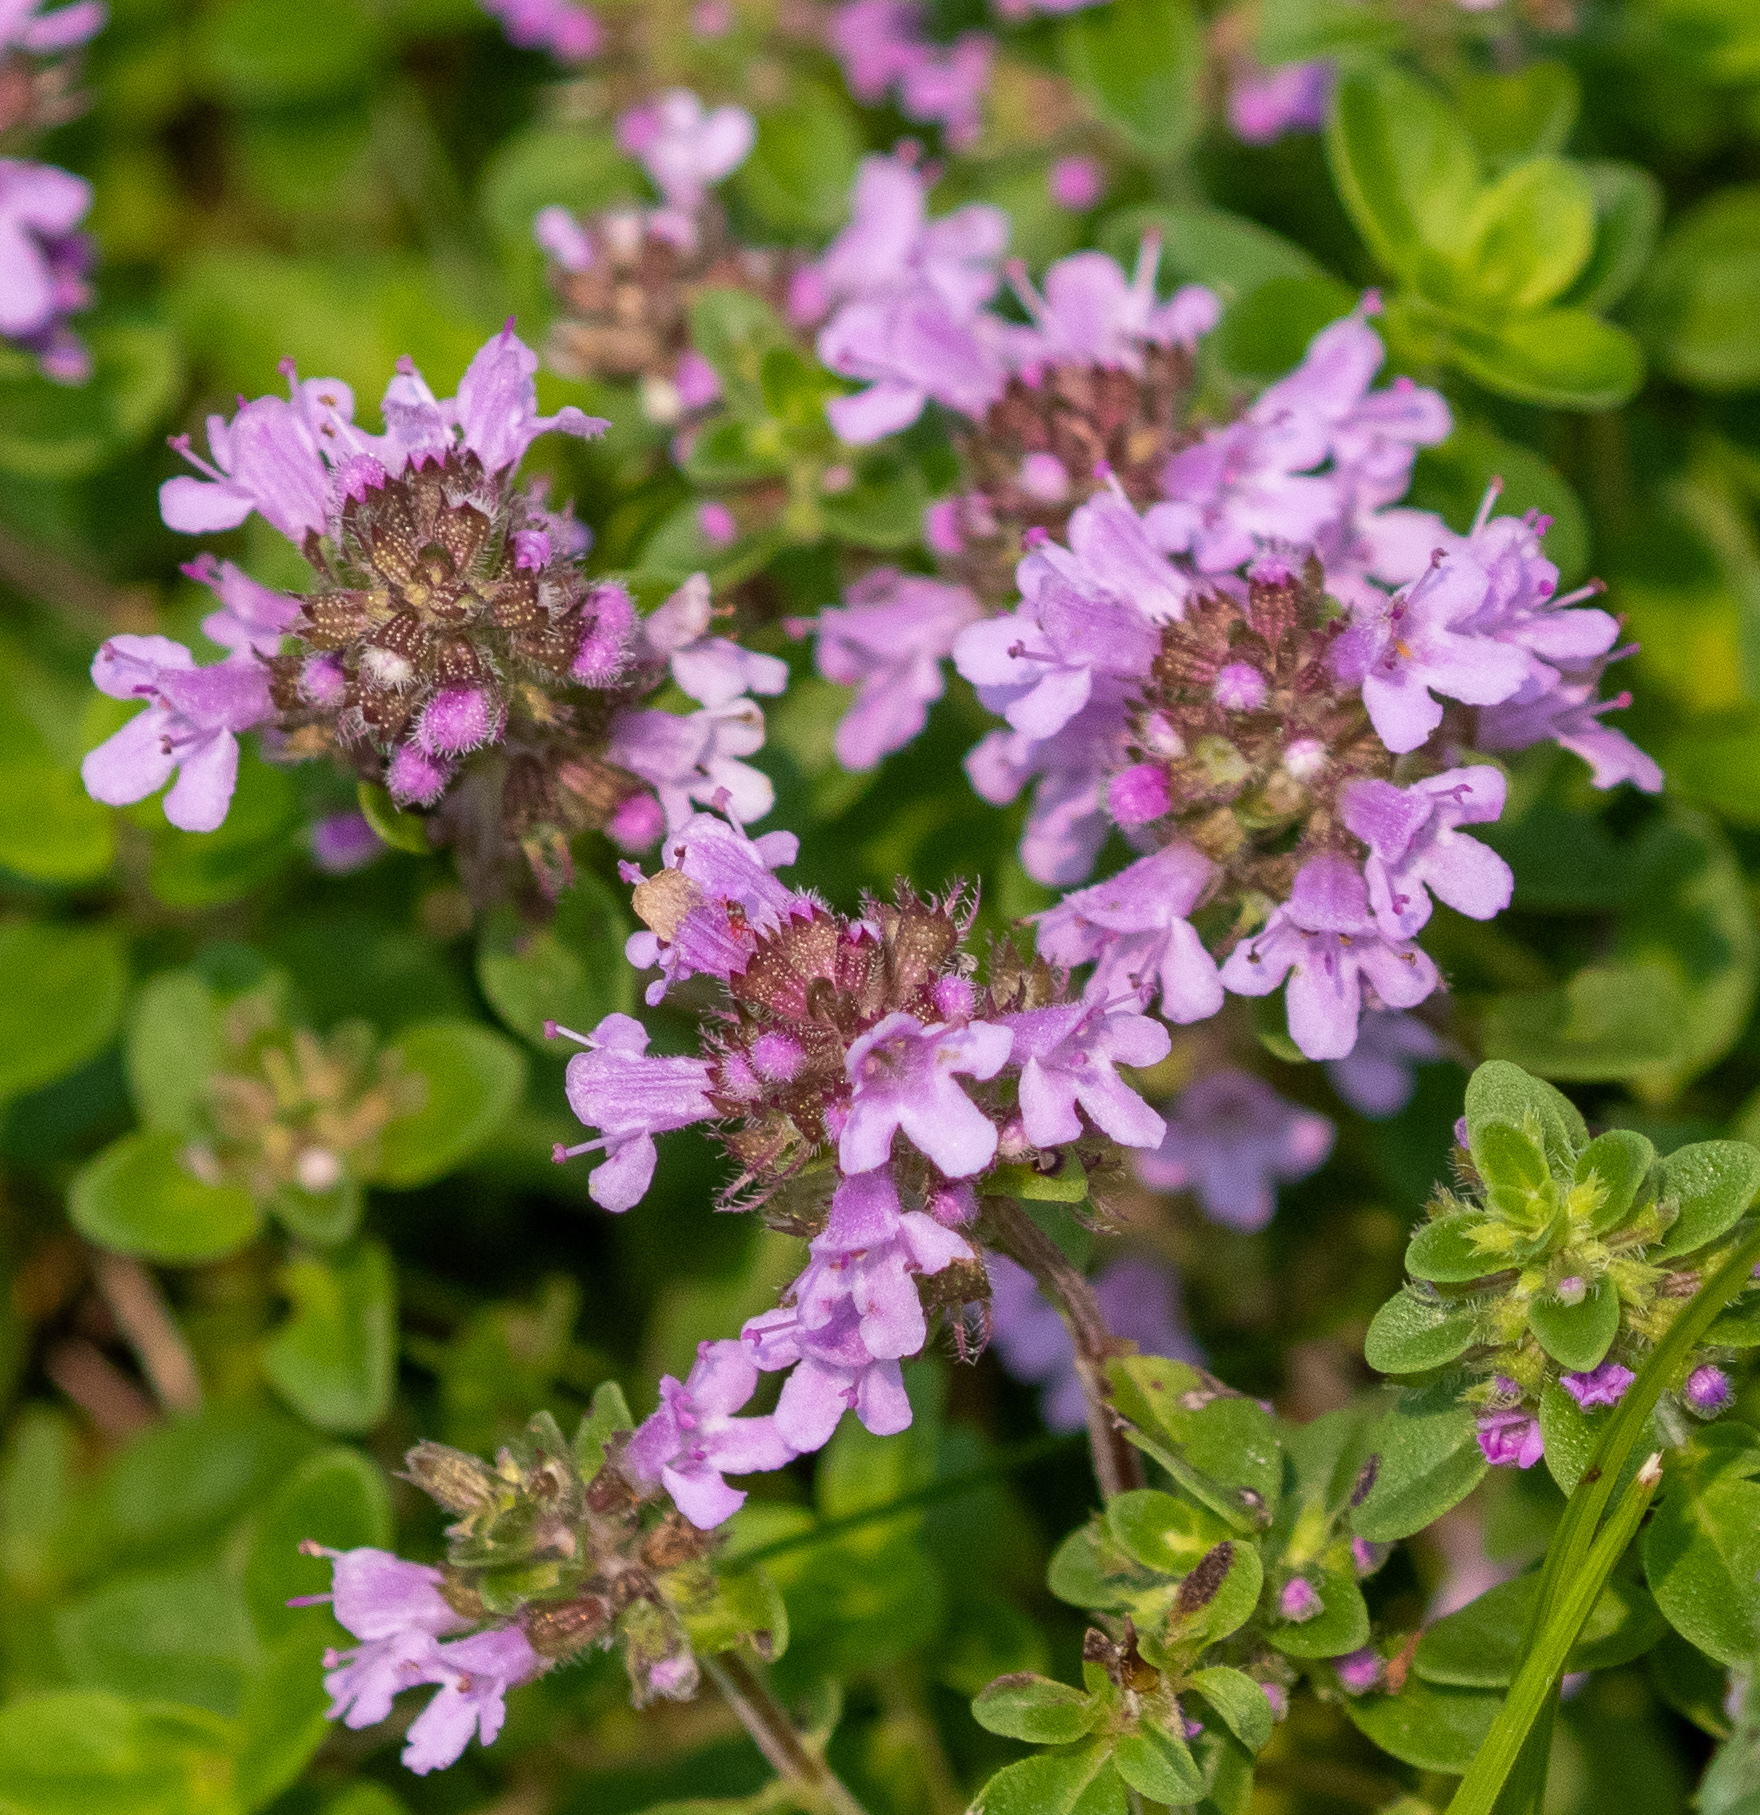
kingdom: Plantae
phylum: Tracheophyta
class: Magnoliopsida
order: Lamiales
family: Lamiaceae
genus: Thymus
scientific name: Thymus pulegioides
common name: Large thyme
